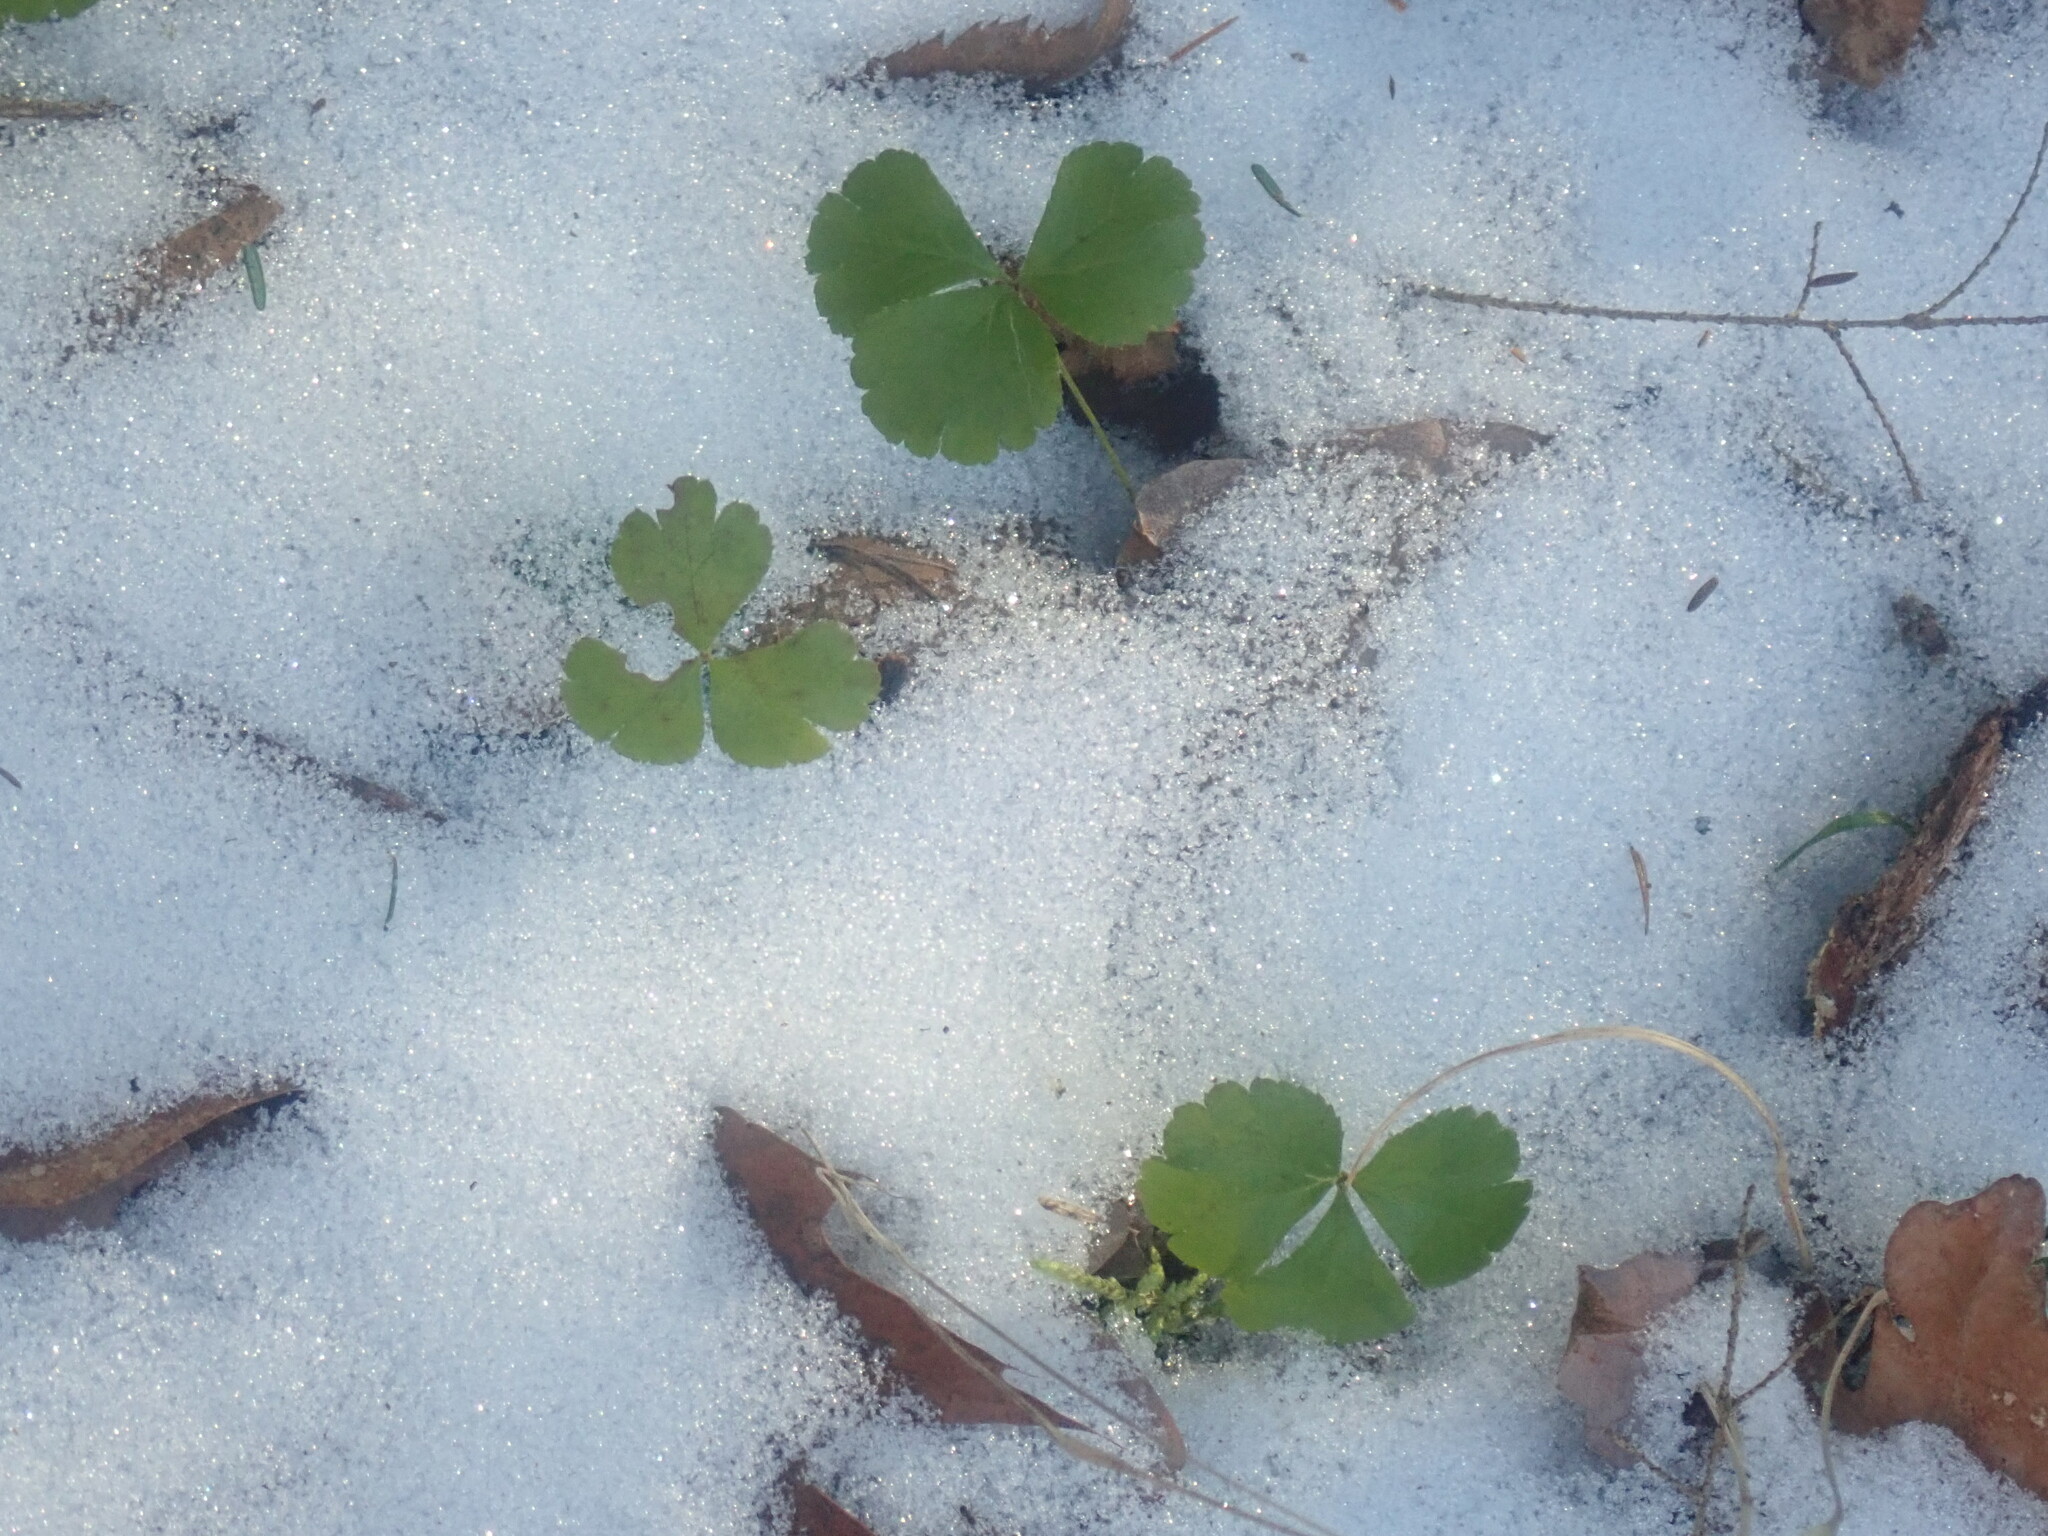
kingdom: Plantae
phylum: Tracheophyta
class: Magnoliopsida
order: Ranunculales
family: Ranunculaceae
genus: Coptis
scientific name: Coptis trifolia
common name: Canker-root
